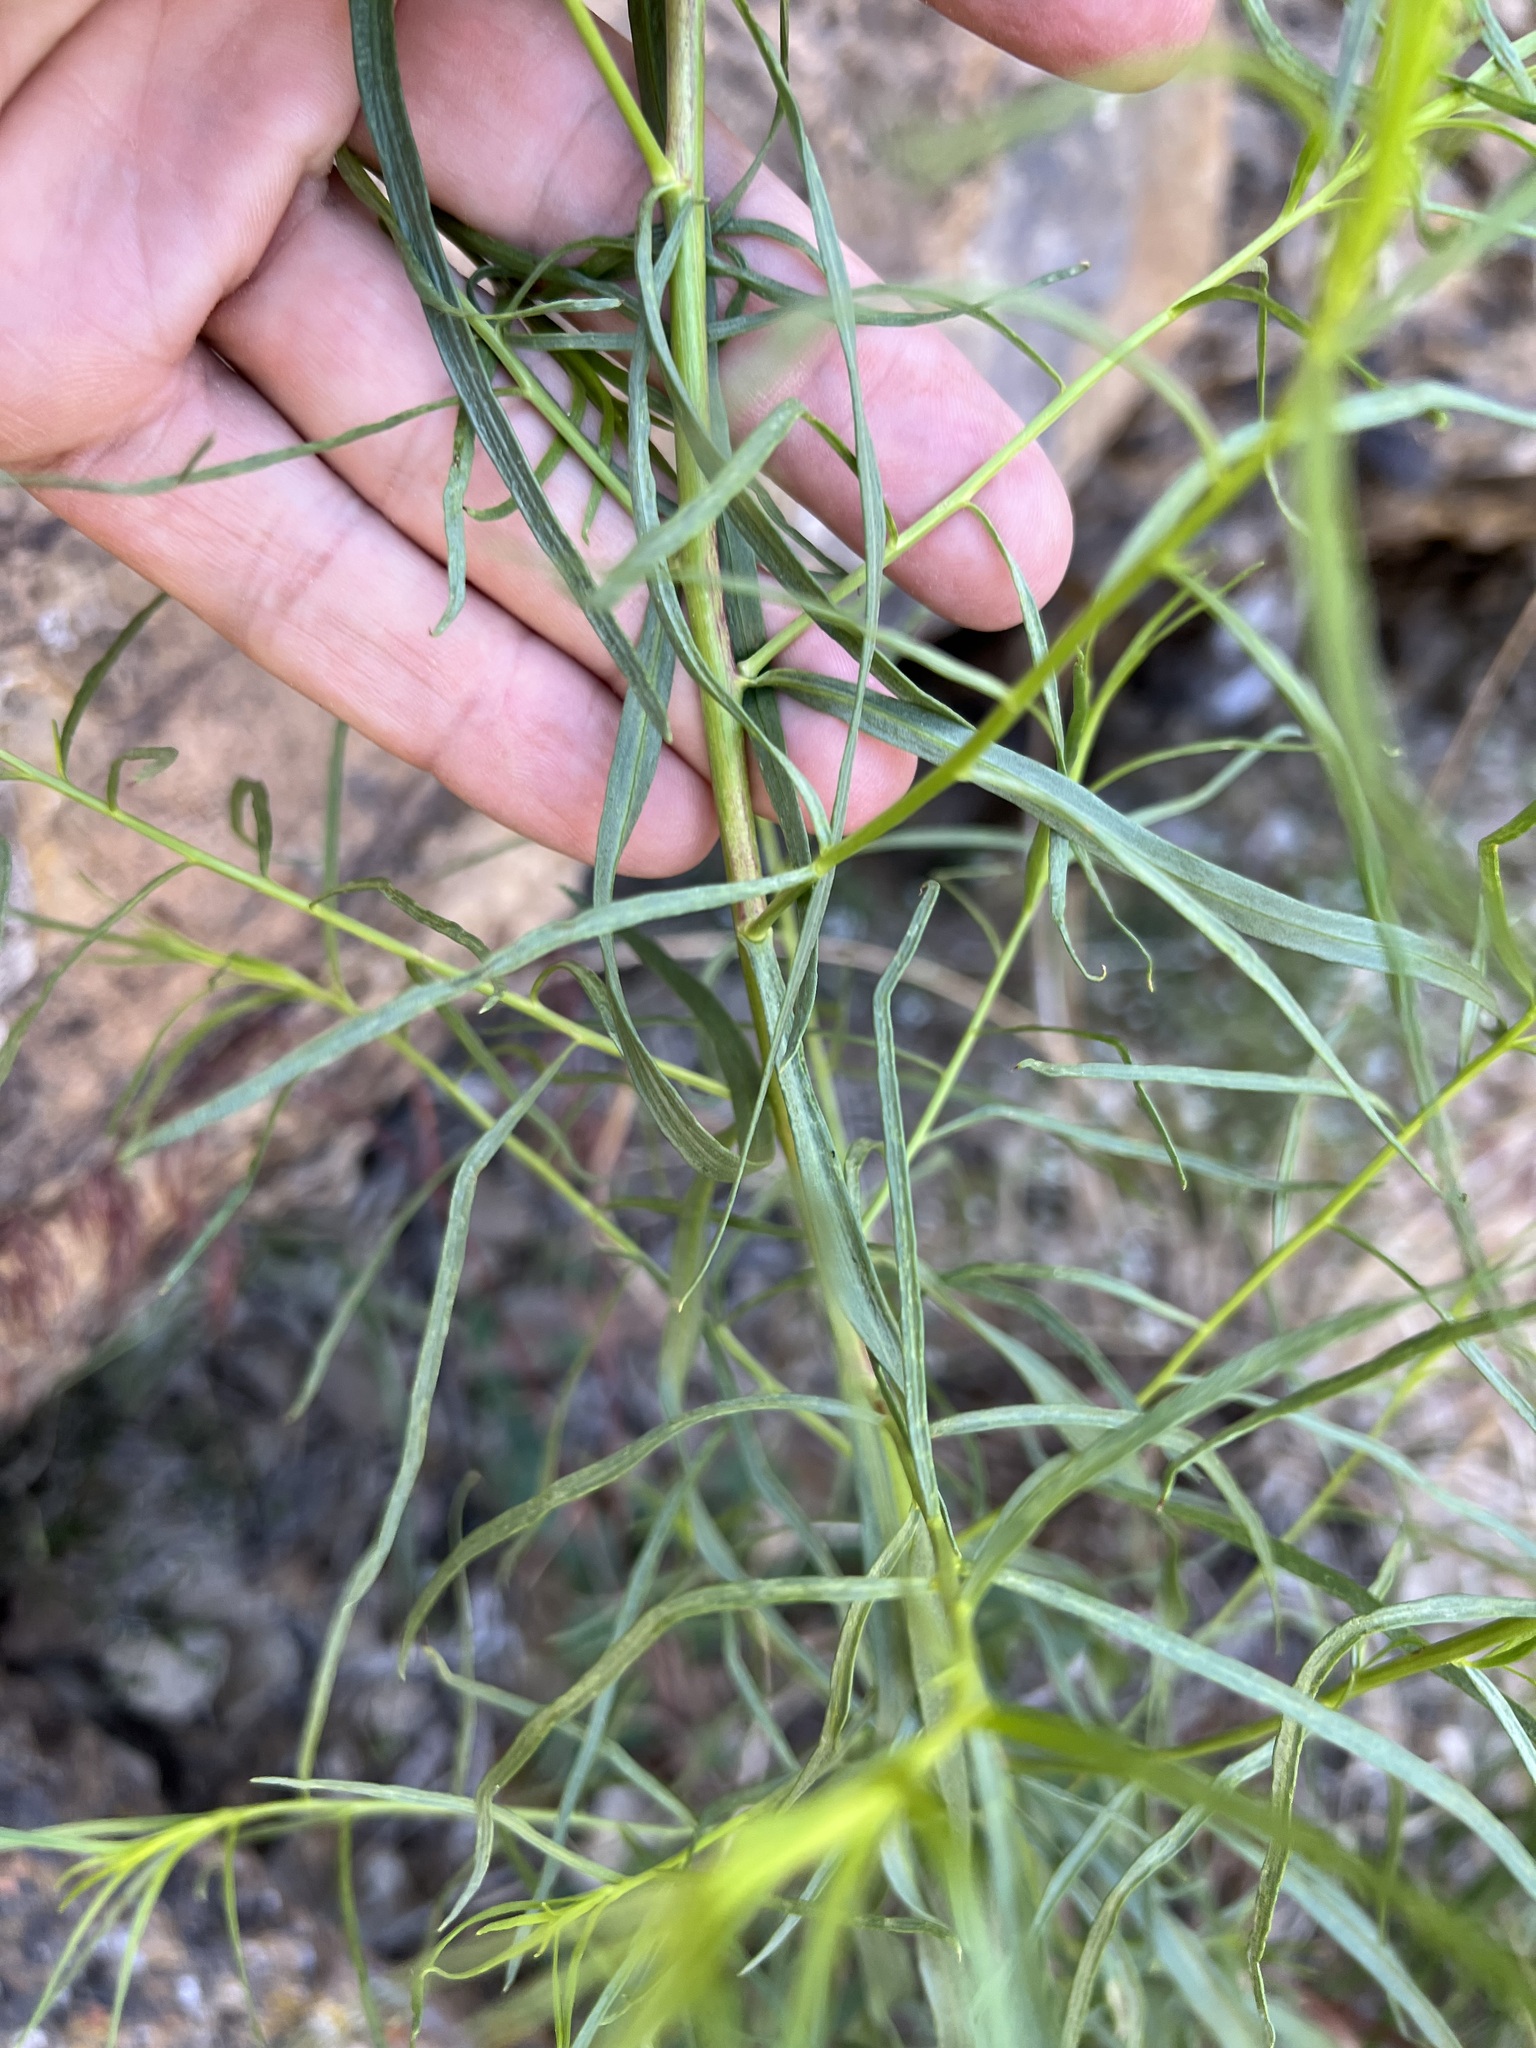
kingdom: Plantae
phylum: Tracheophyta
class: Magnoliopsida
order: Asterales
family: Asteraceae
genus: Artemisia
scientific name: Artemisia dracunculus
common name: Tarragon
